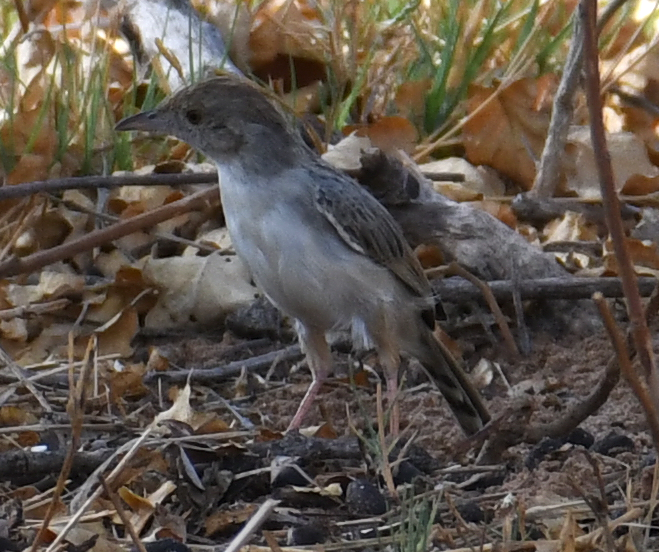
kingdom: Animalia
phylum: Chordata
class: Aves
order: Passeriformes
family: Cisticolidae
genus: Cisticola
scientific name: Cisticola chiniana
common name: Rattling cisticola
